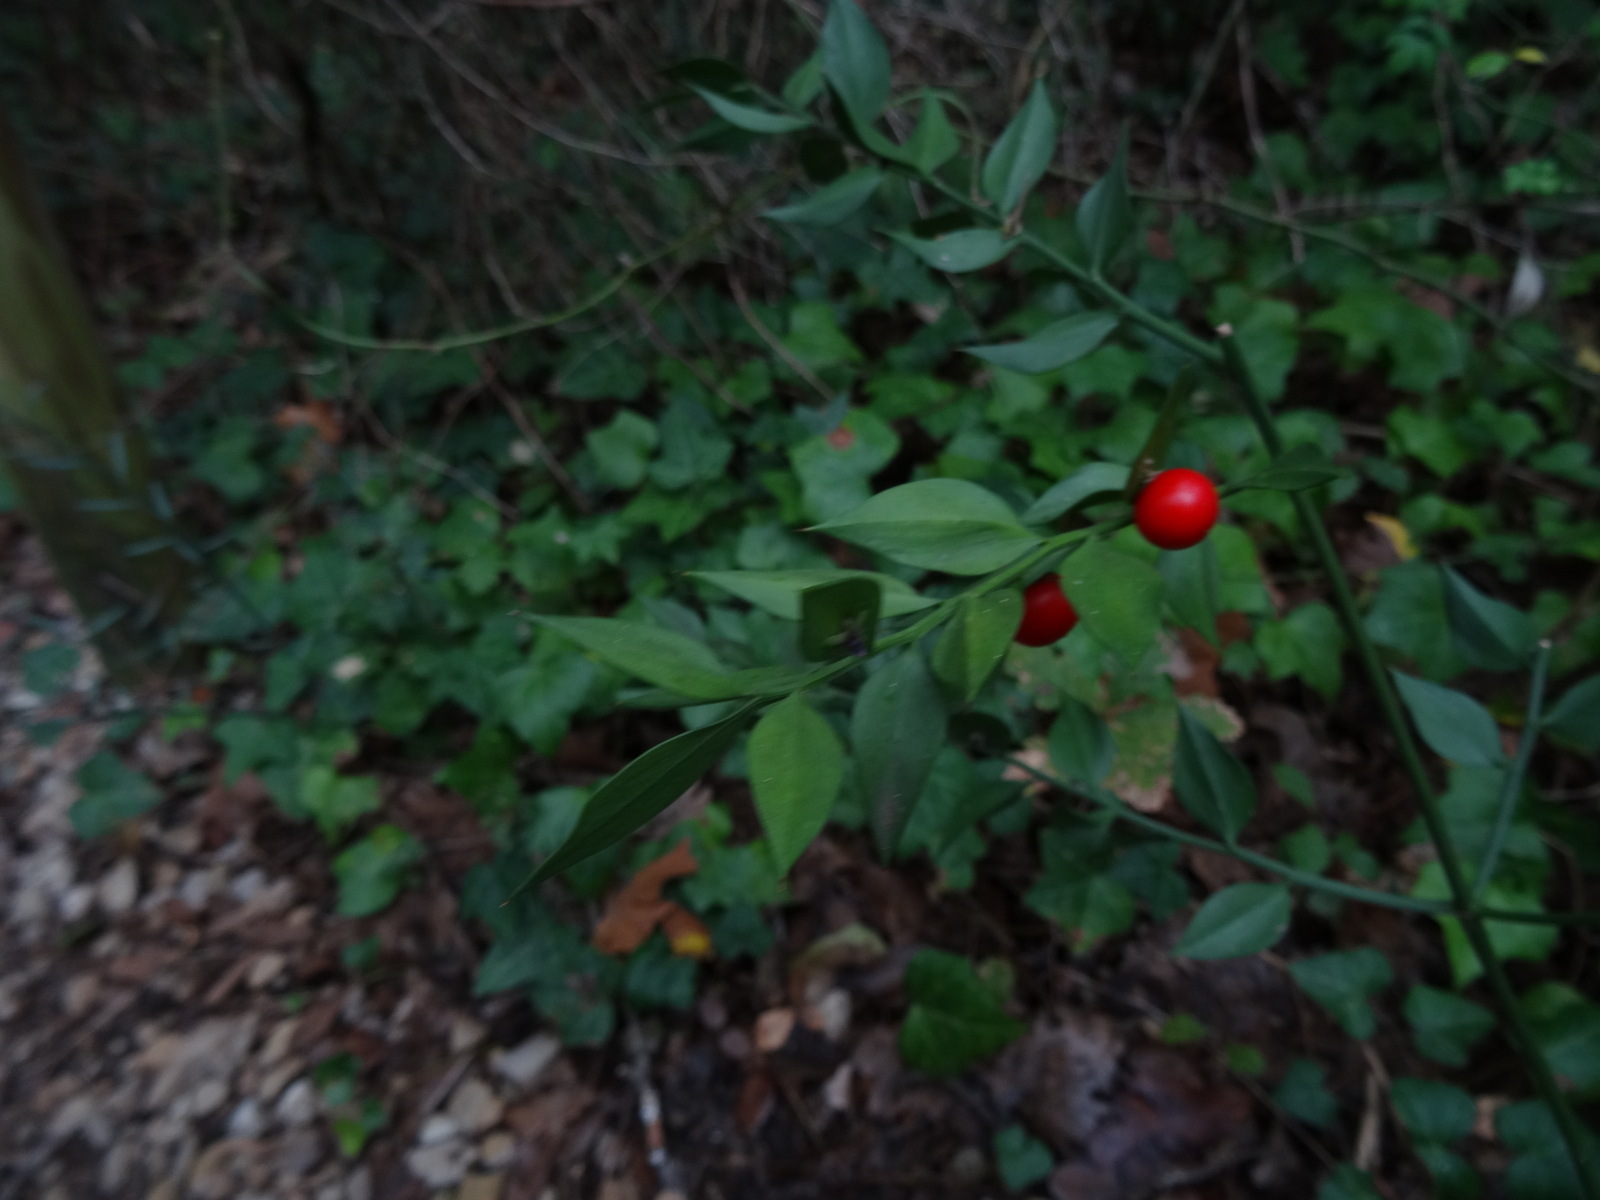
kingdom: Plantae
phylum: Tracheophyta
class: Liliopsida
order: Asparagales
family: Asparagaceae
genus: Ruscus
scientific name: Ruscus aculeatus
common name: Butcher's-broom
